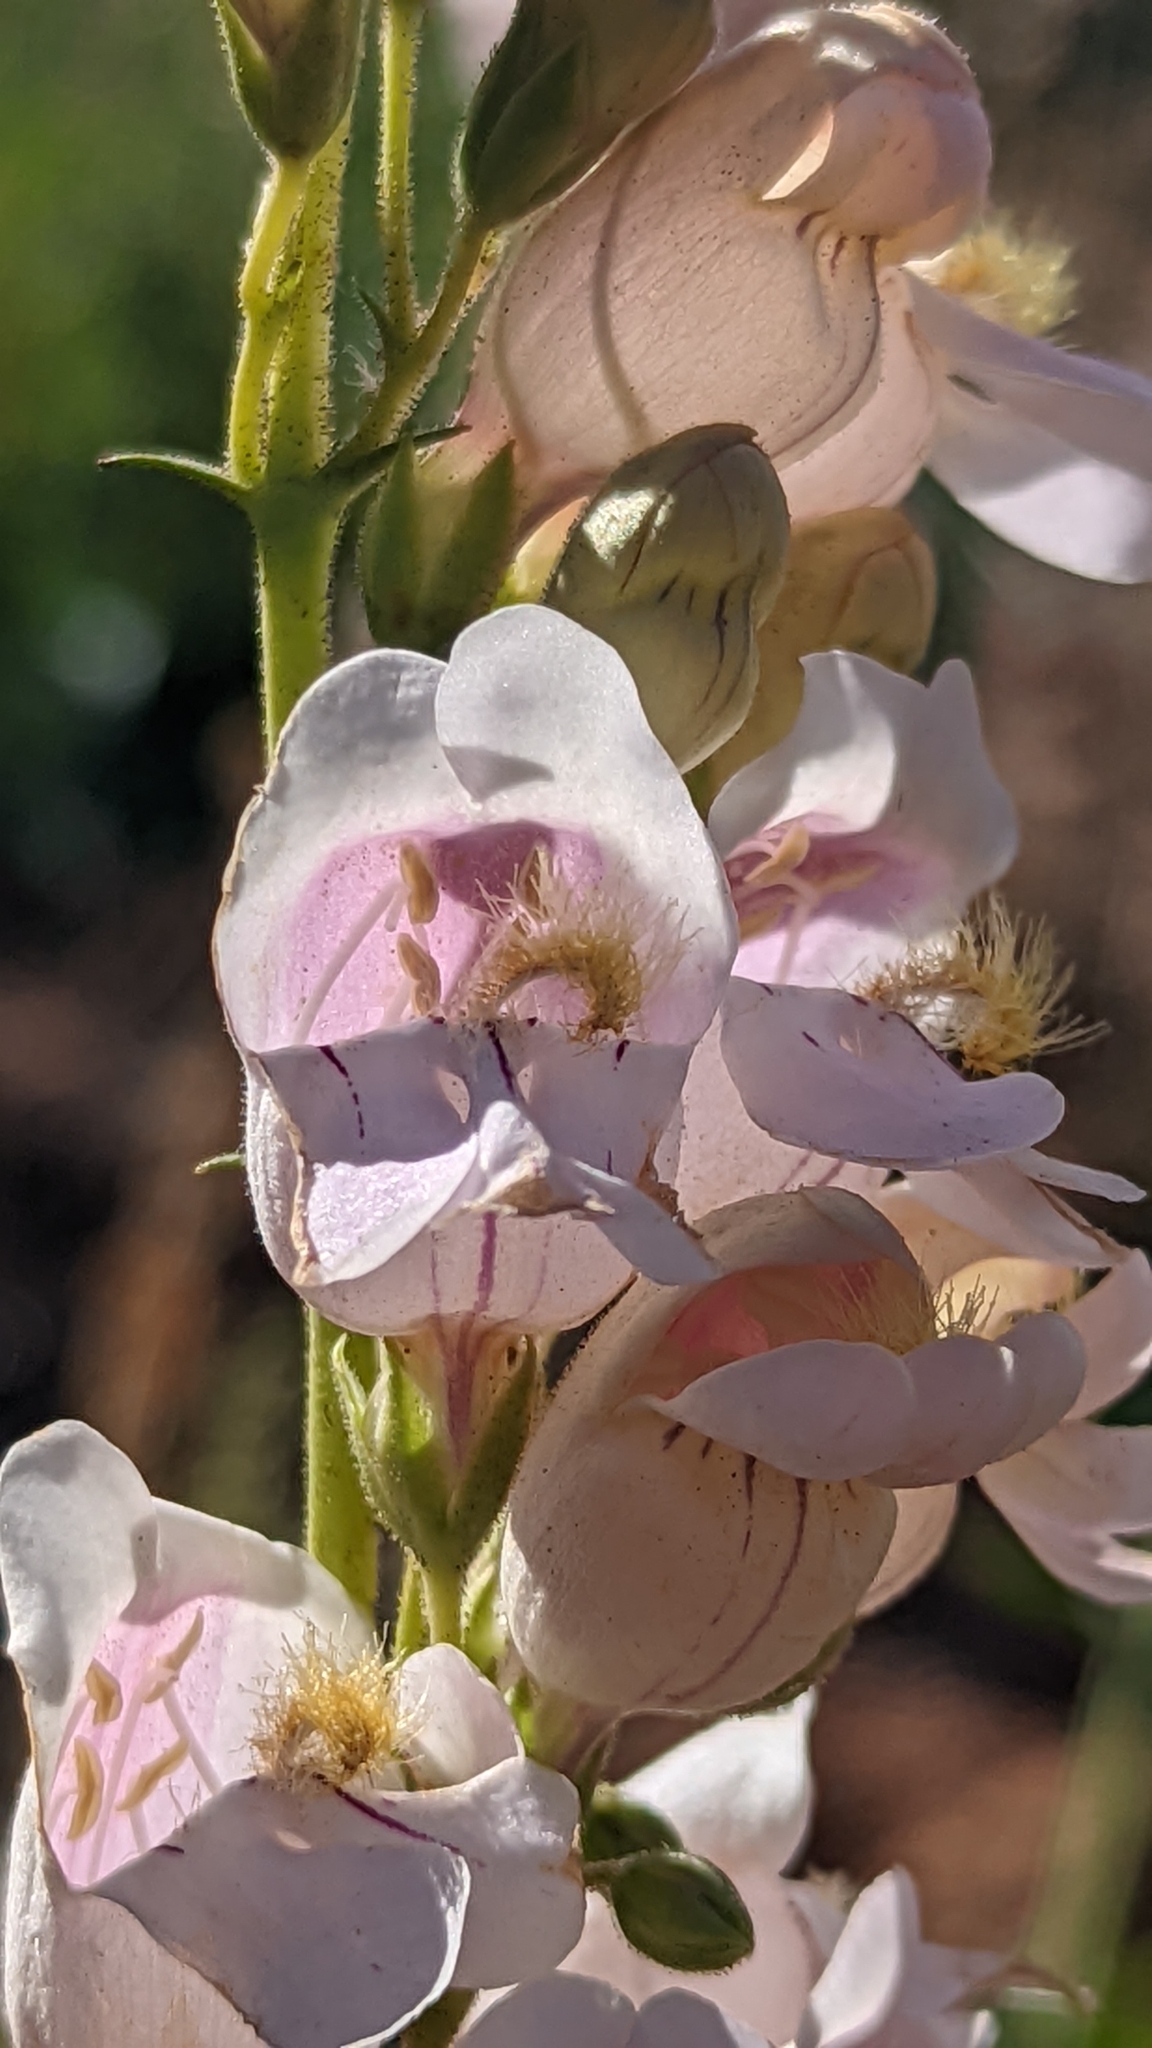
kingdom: Plantae
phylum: Tracheophyta
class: Magnoliopsida
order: Lamiales
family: Plantaginaceae
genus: Penstemon
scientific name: Penstemon palmeri
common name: Palmer penstemon
